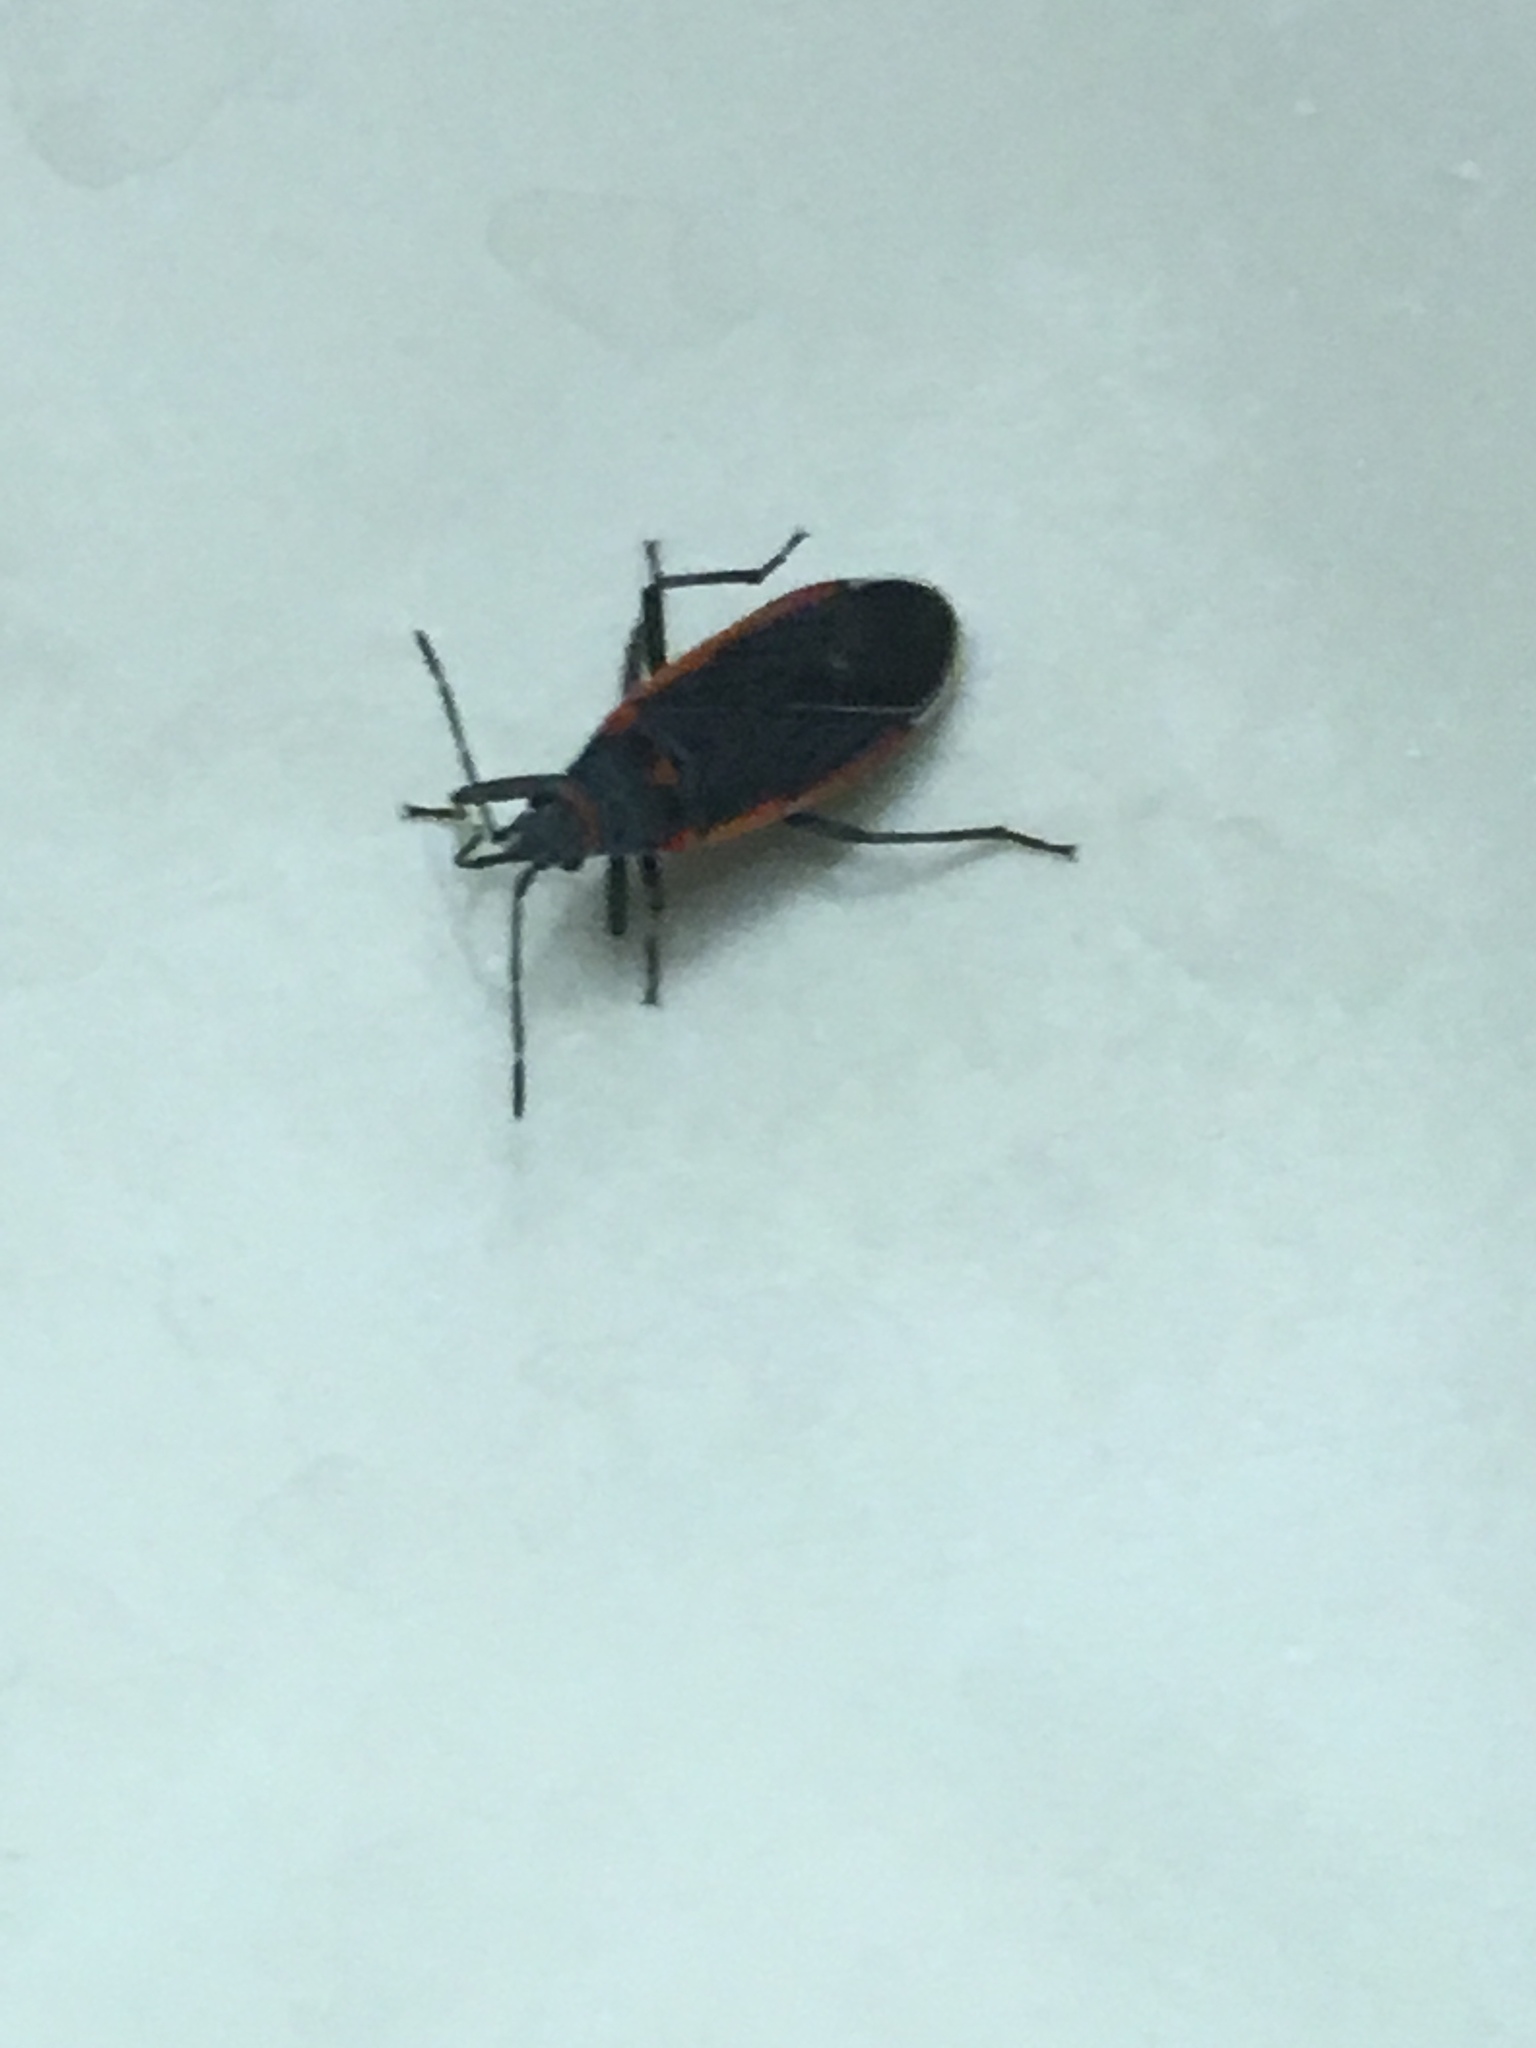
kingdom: Animalia
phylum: Arthropoda
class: Insecta
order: Hemiptera
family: Lygaeidae
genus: Melacoryphus
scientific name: Melacoryphus lateralis
